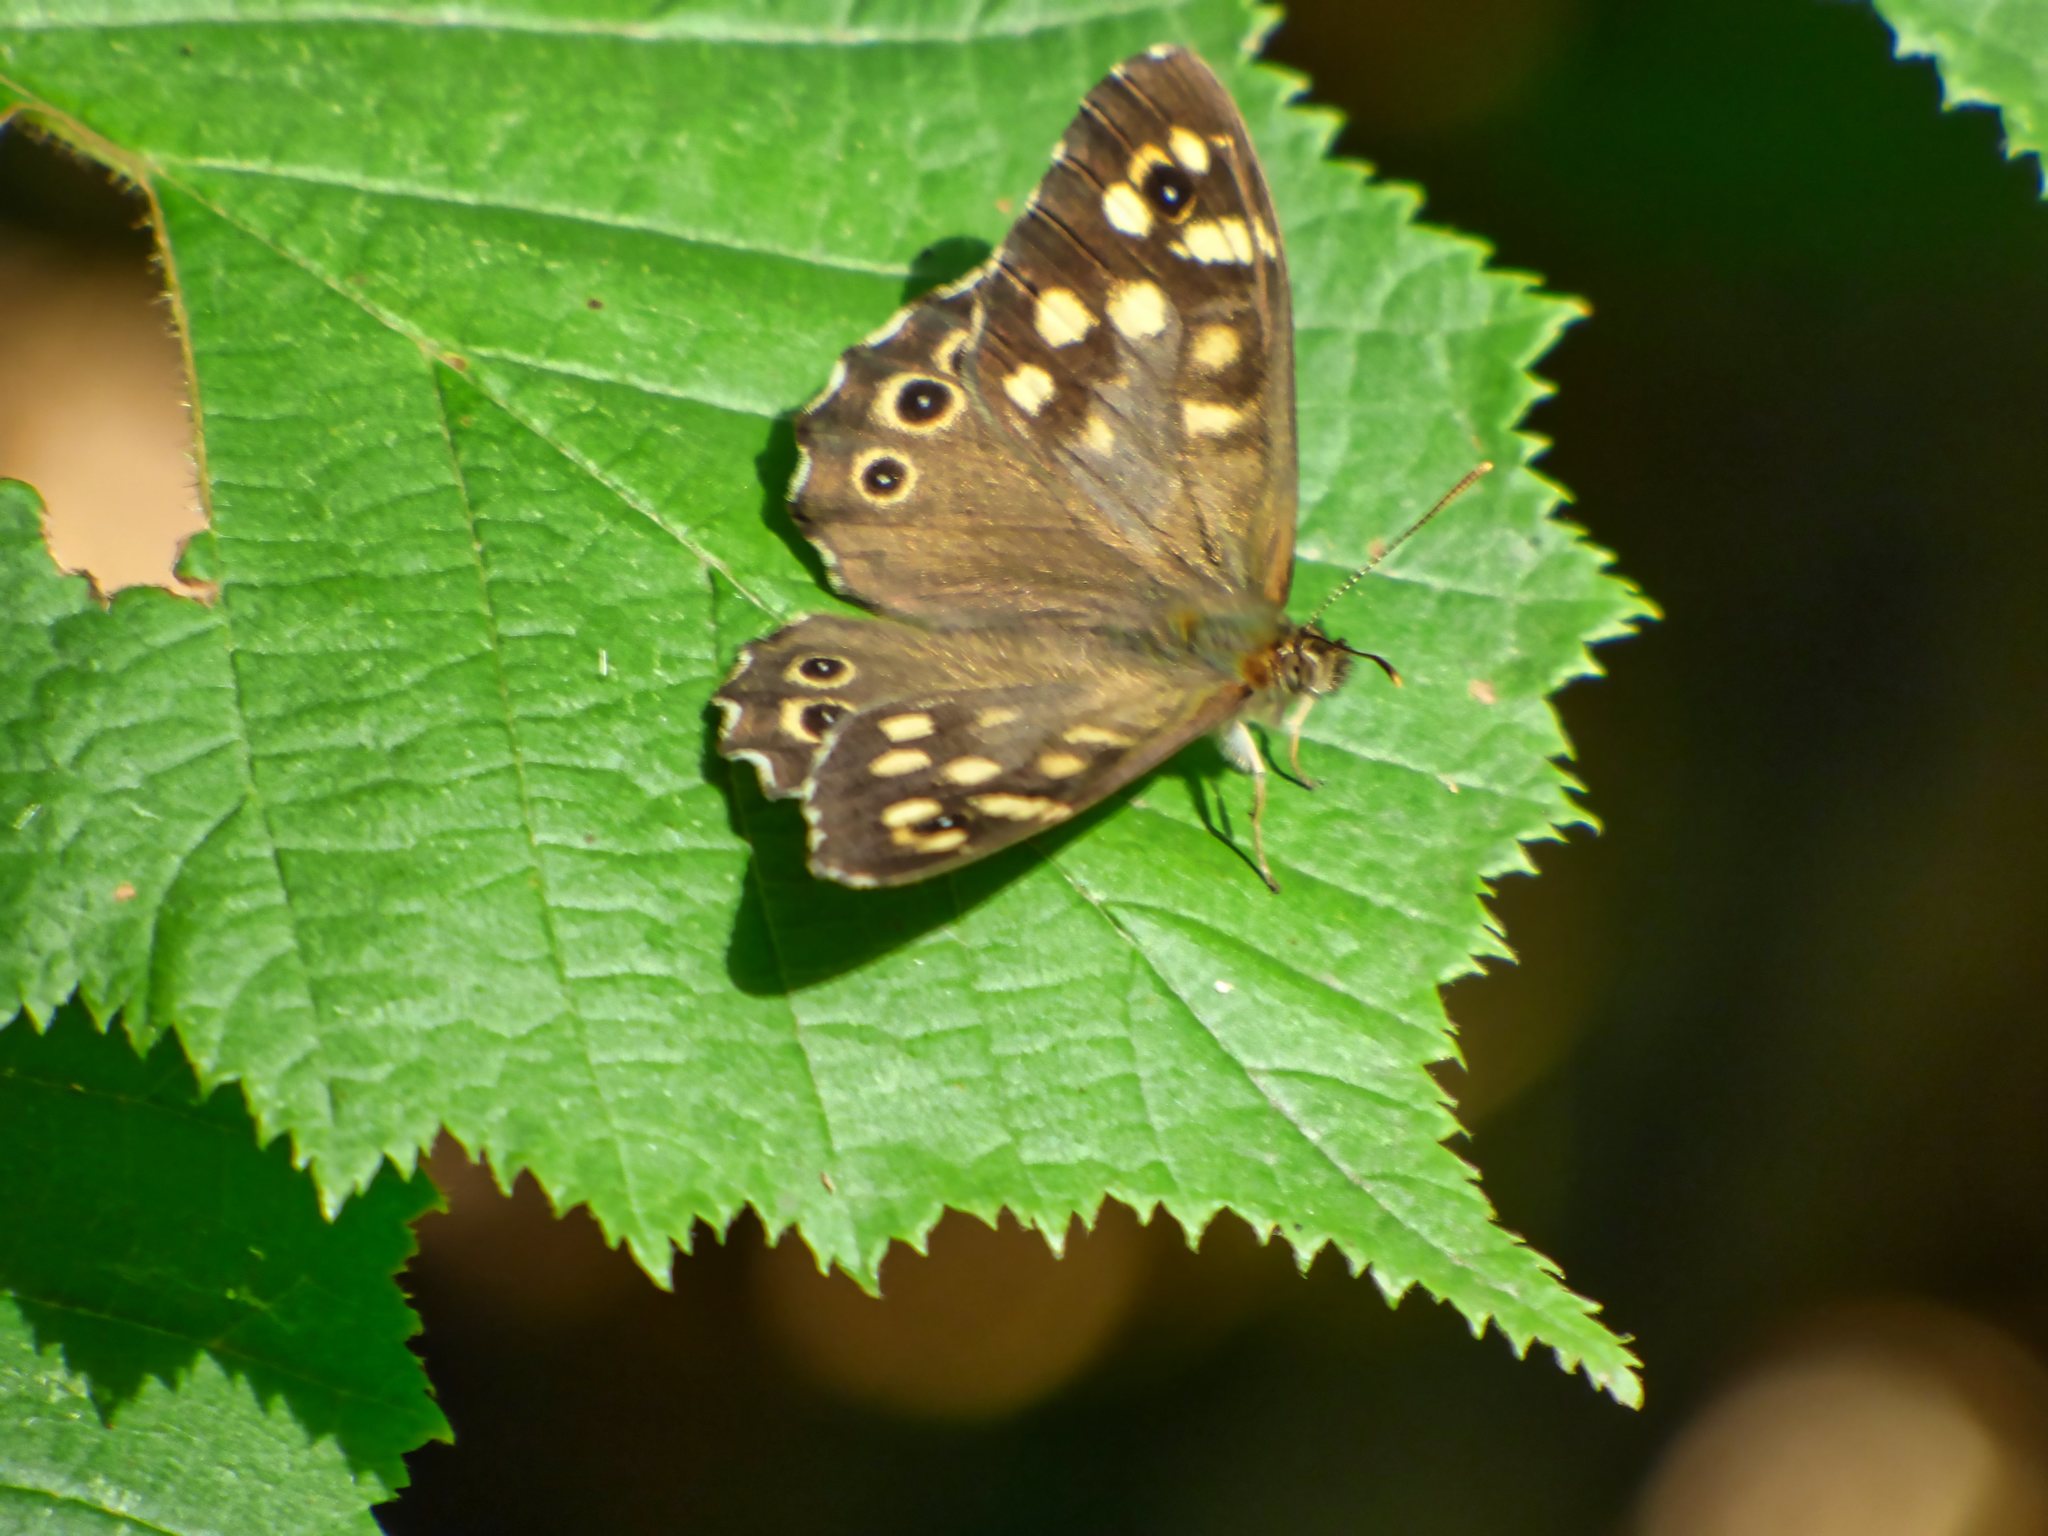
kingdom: Animalia
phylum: Arthropoda
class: Insecta
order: Lepidoptera
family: Nymphalidae
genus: Pararge
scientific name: Pararge aegeria
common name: Speckled wood
